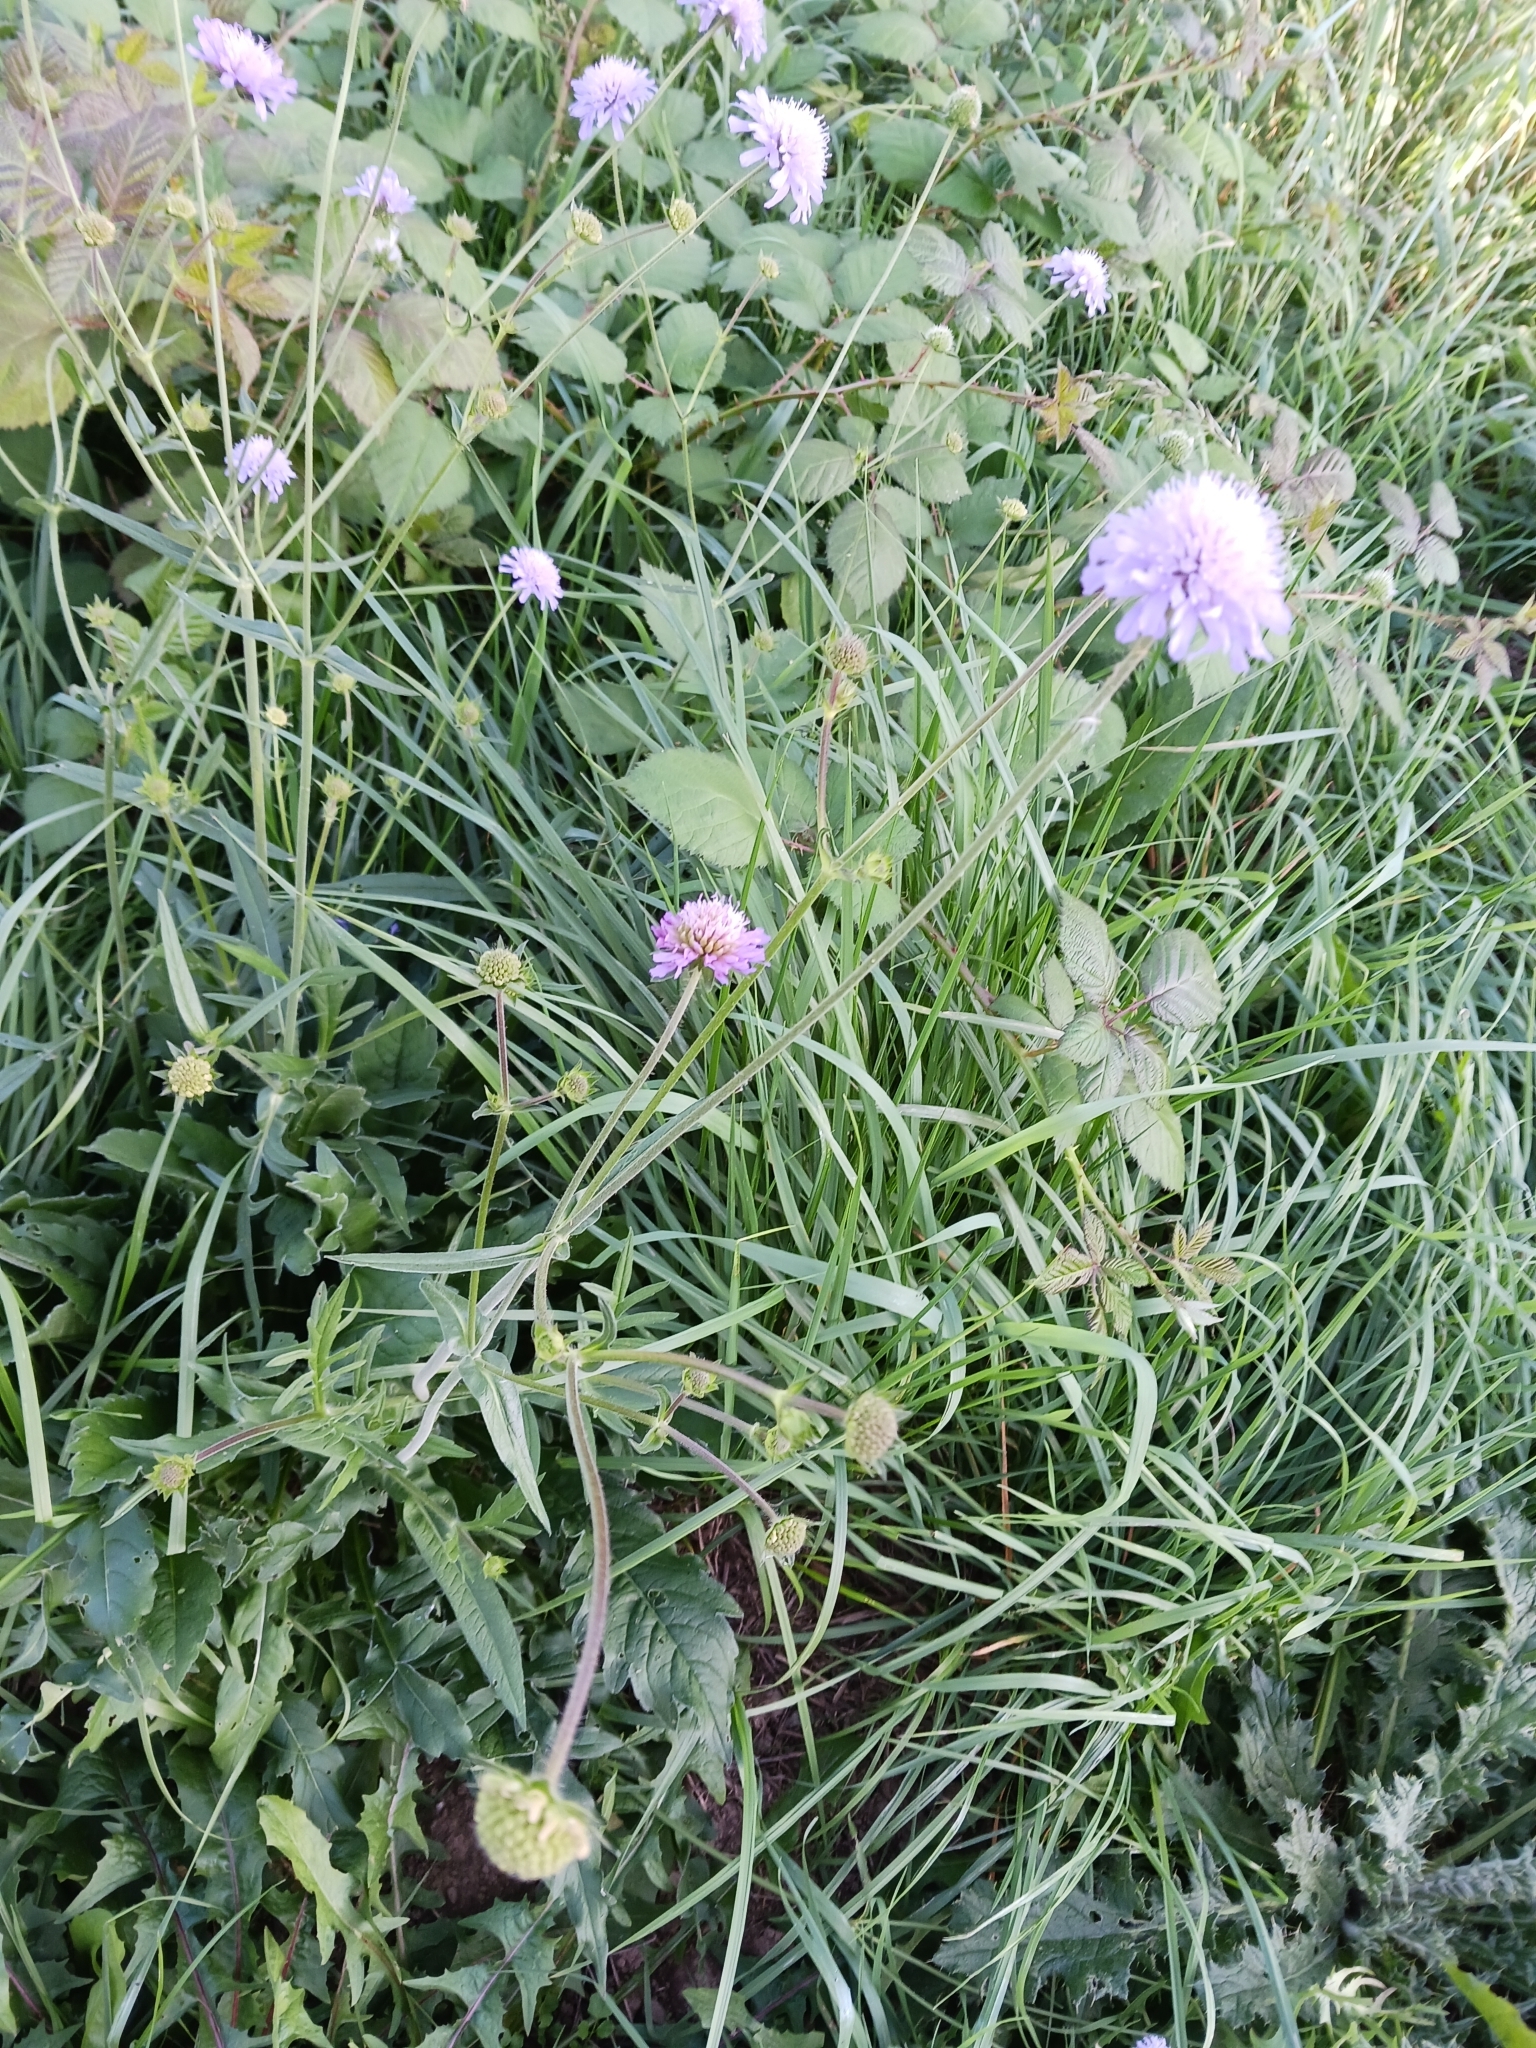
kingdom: Plantae
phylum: Tracheophyta
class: Magnoliopsida
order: Dipsacales
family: Caprifoliaceae
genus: Knautia
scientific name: Knautia arvensis
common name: Field scabiosa
